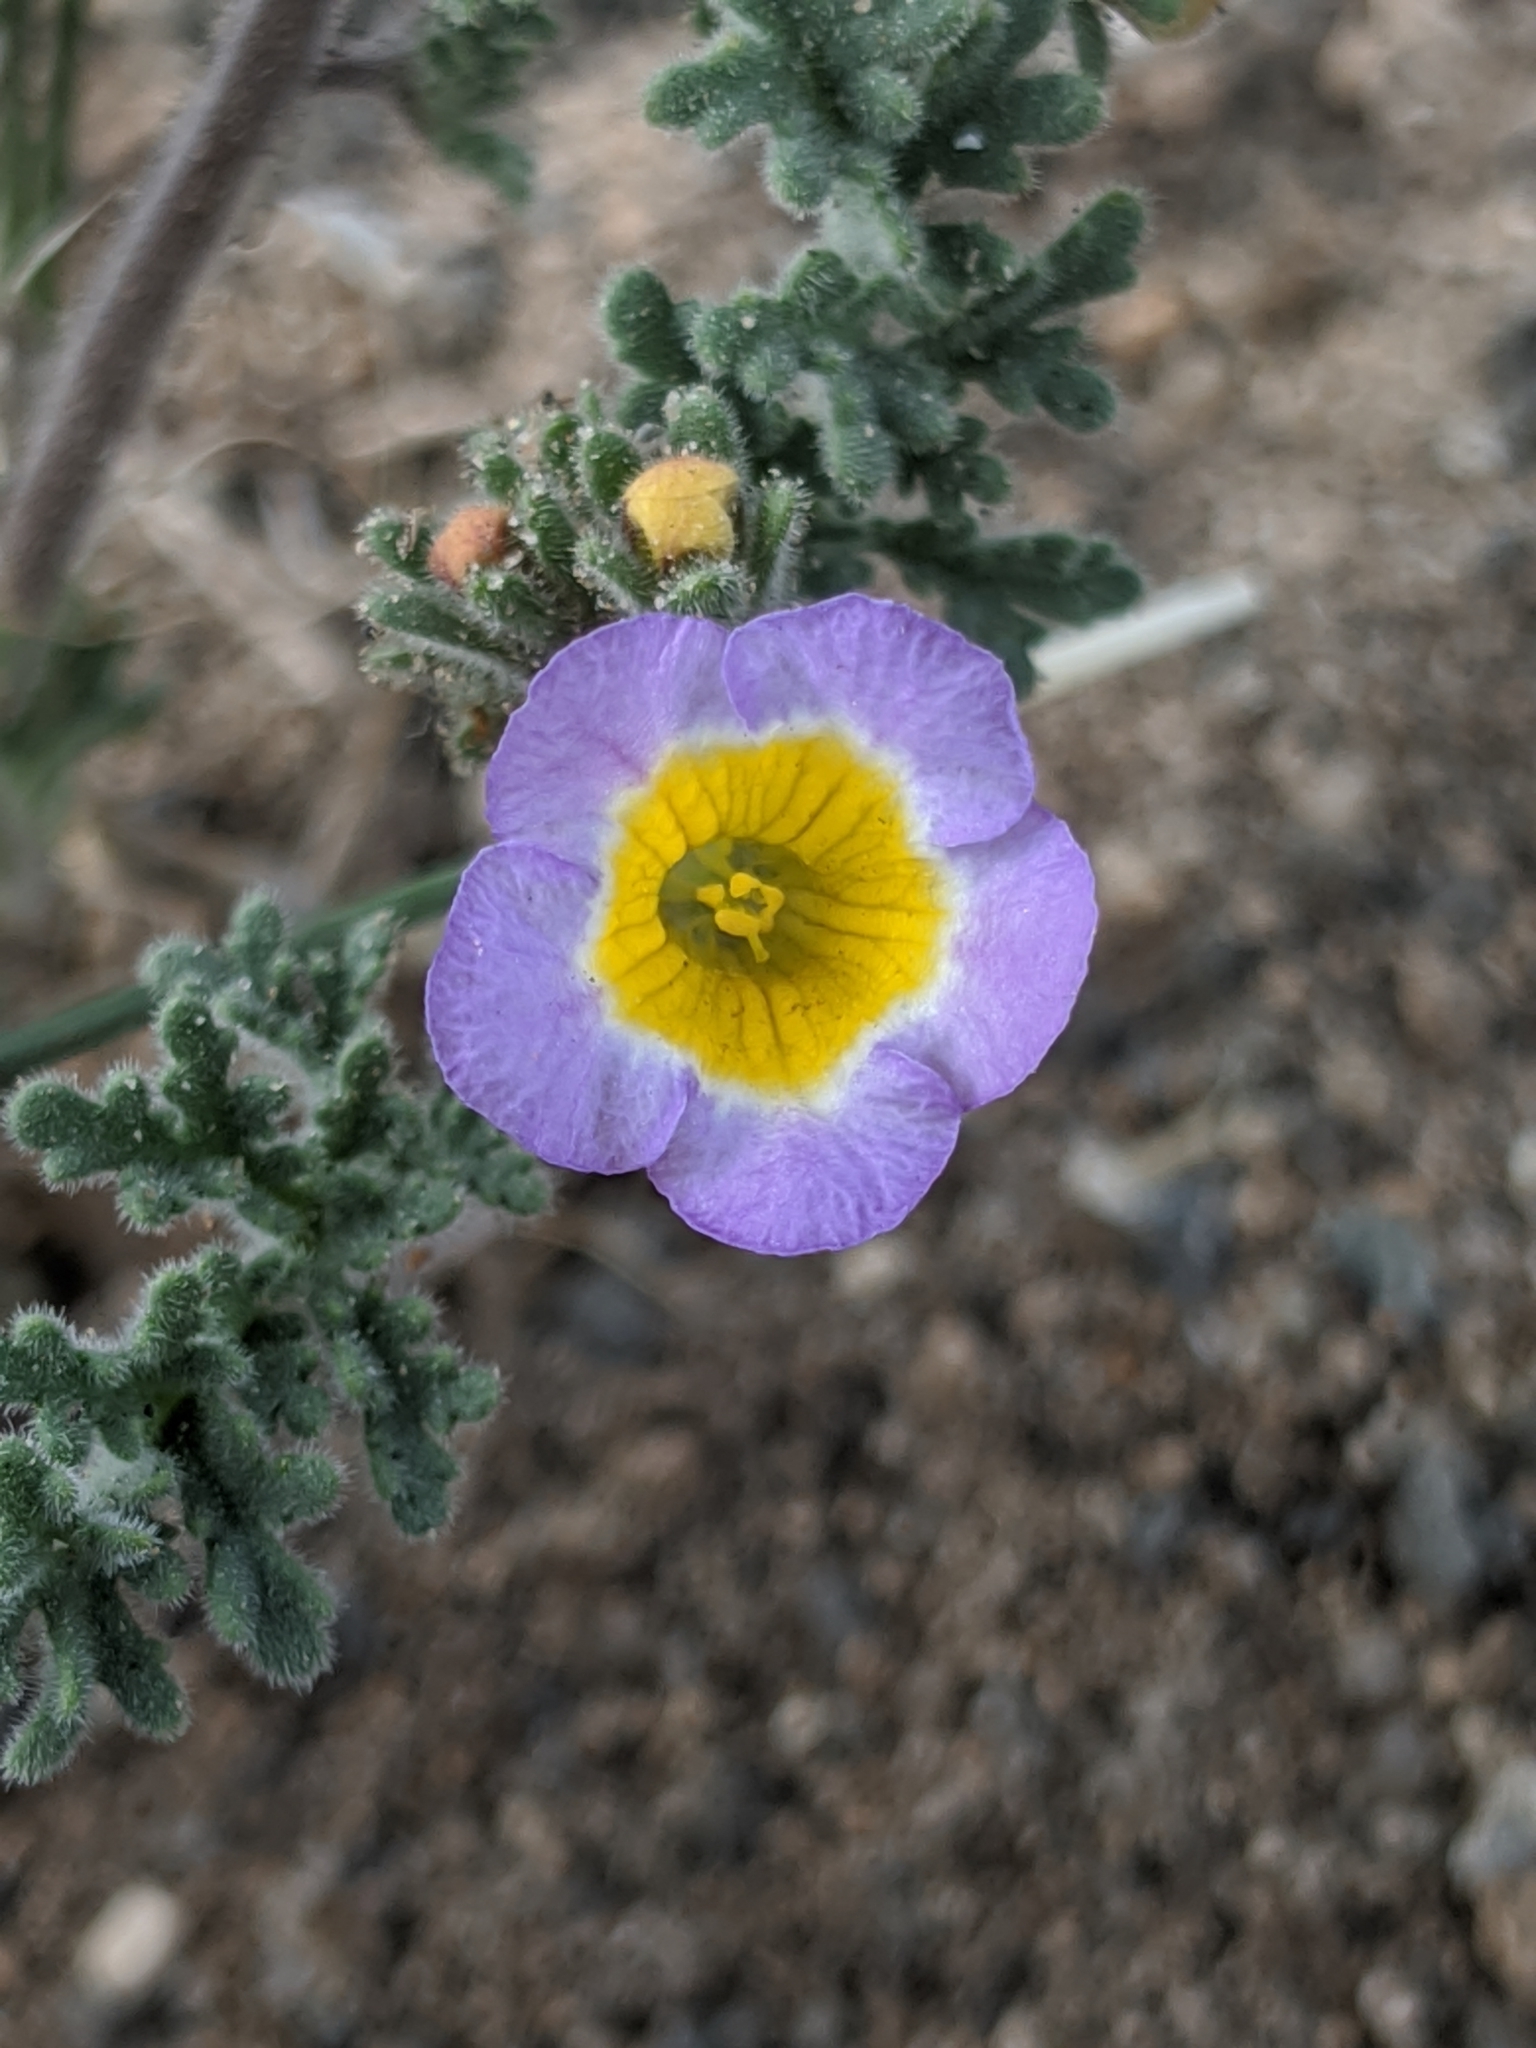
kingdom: Plantae
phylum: Tracheophyta
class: Magnoliopsida
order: Boraginales
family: Hydrophyllaceae
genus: Phacelia
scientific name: Phacelia bicolor
